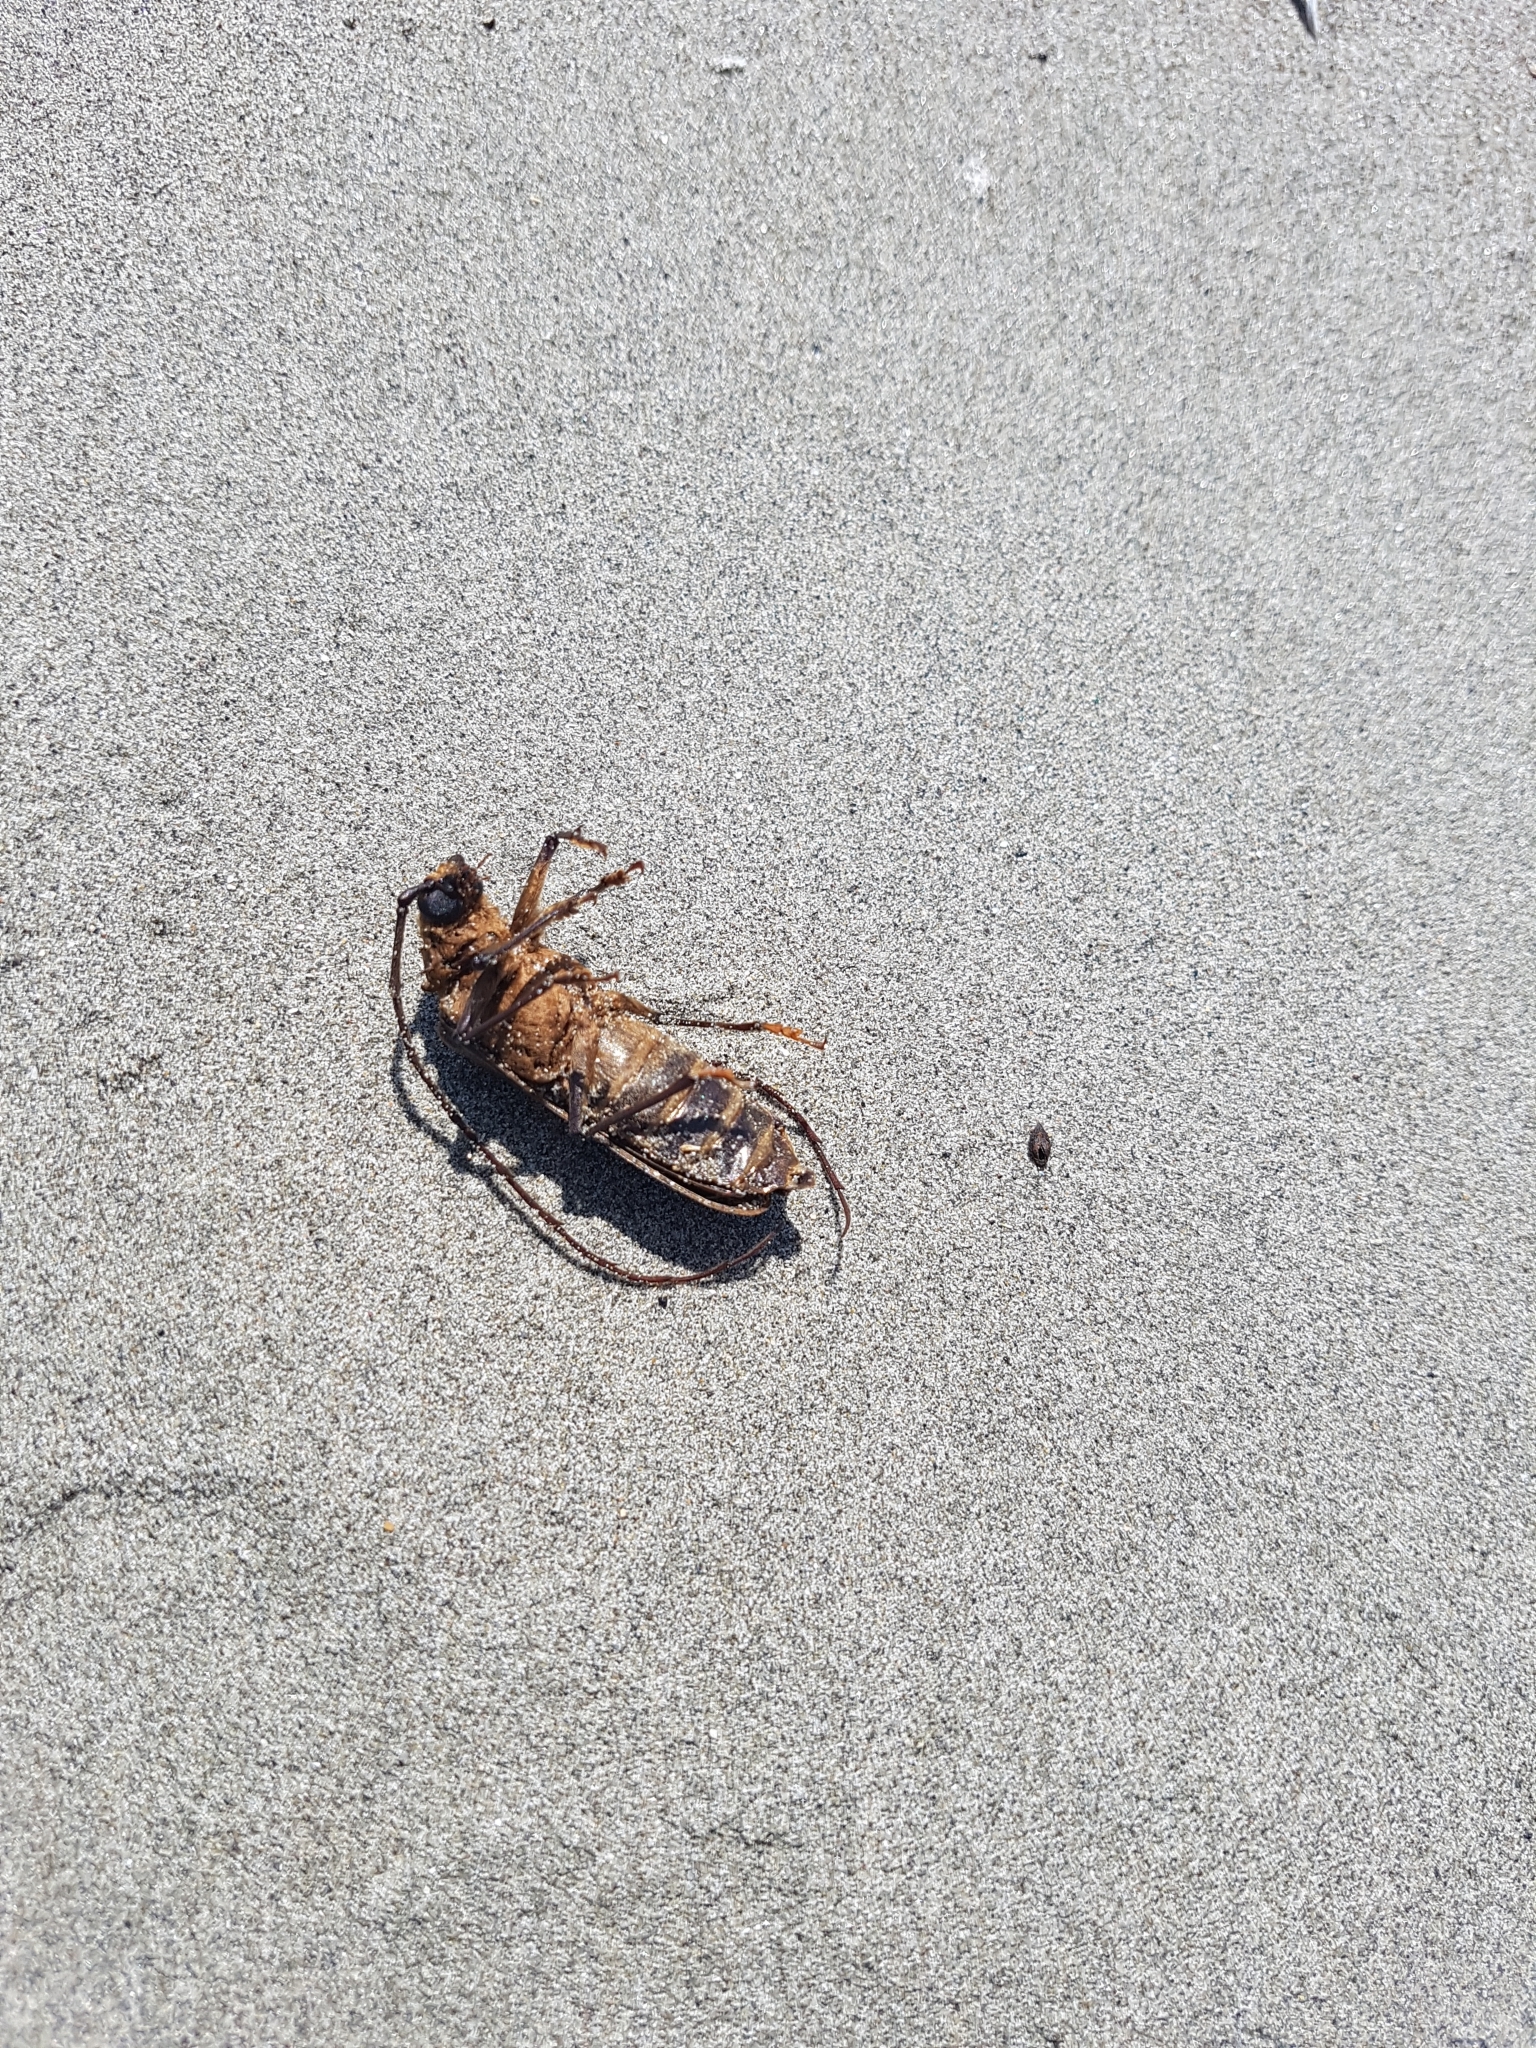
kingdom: Animalia
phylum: Arthropoda
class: Insecta
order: Coleoptera
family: Cerambycidae
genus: Prionoplus
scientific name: Prionoplus reticularis
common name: Huhu beetle
